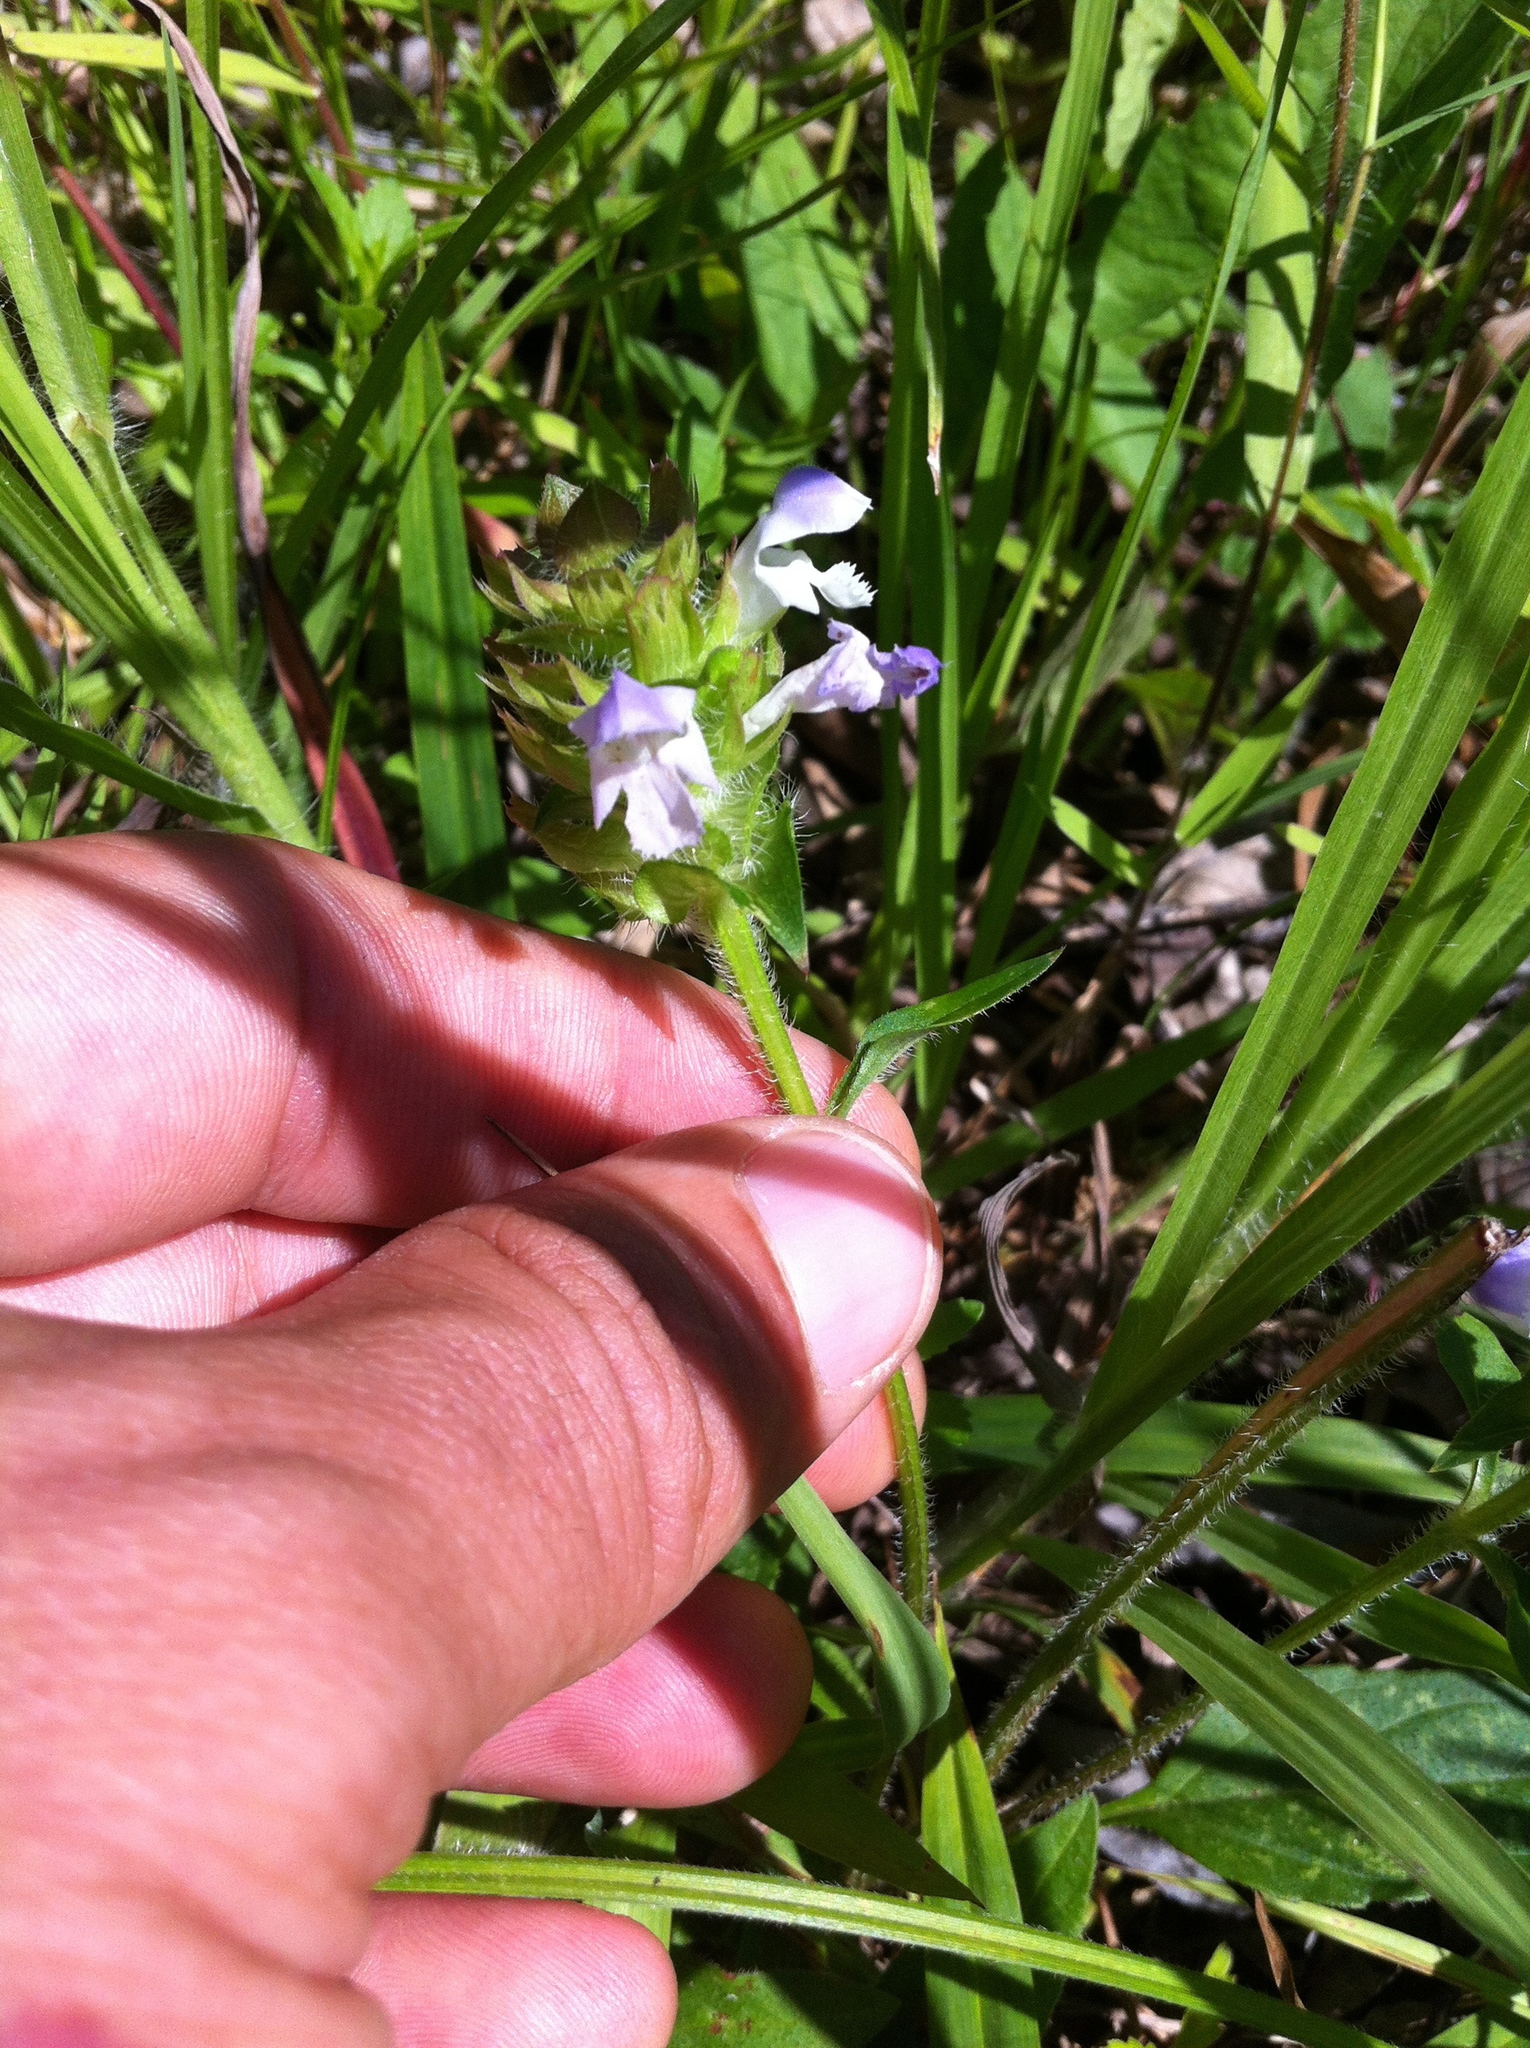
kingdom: Plantae
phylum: Tracheophyta
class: Magnoliopsida
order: Lamiales
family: Lamiaceae
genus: Prunella
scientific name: Prunella vulgaris
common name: Heal-all
